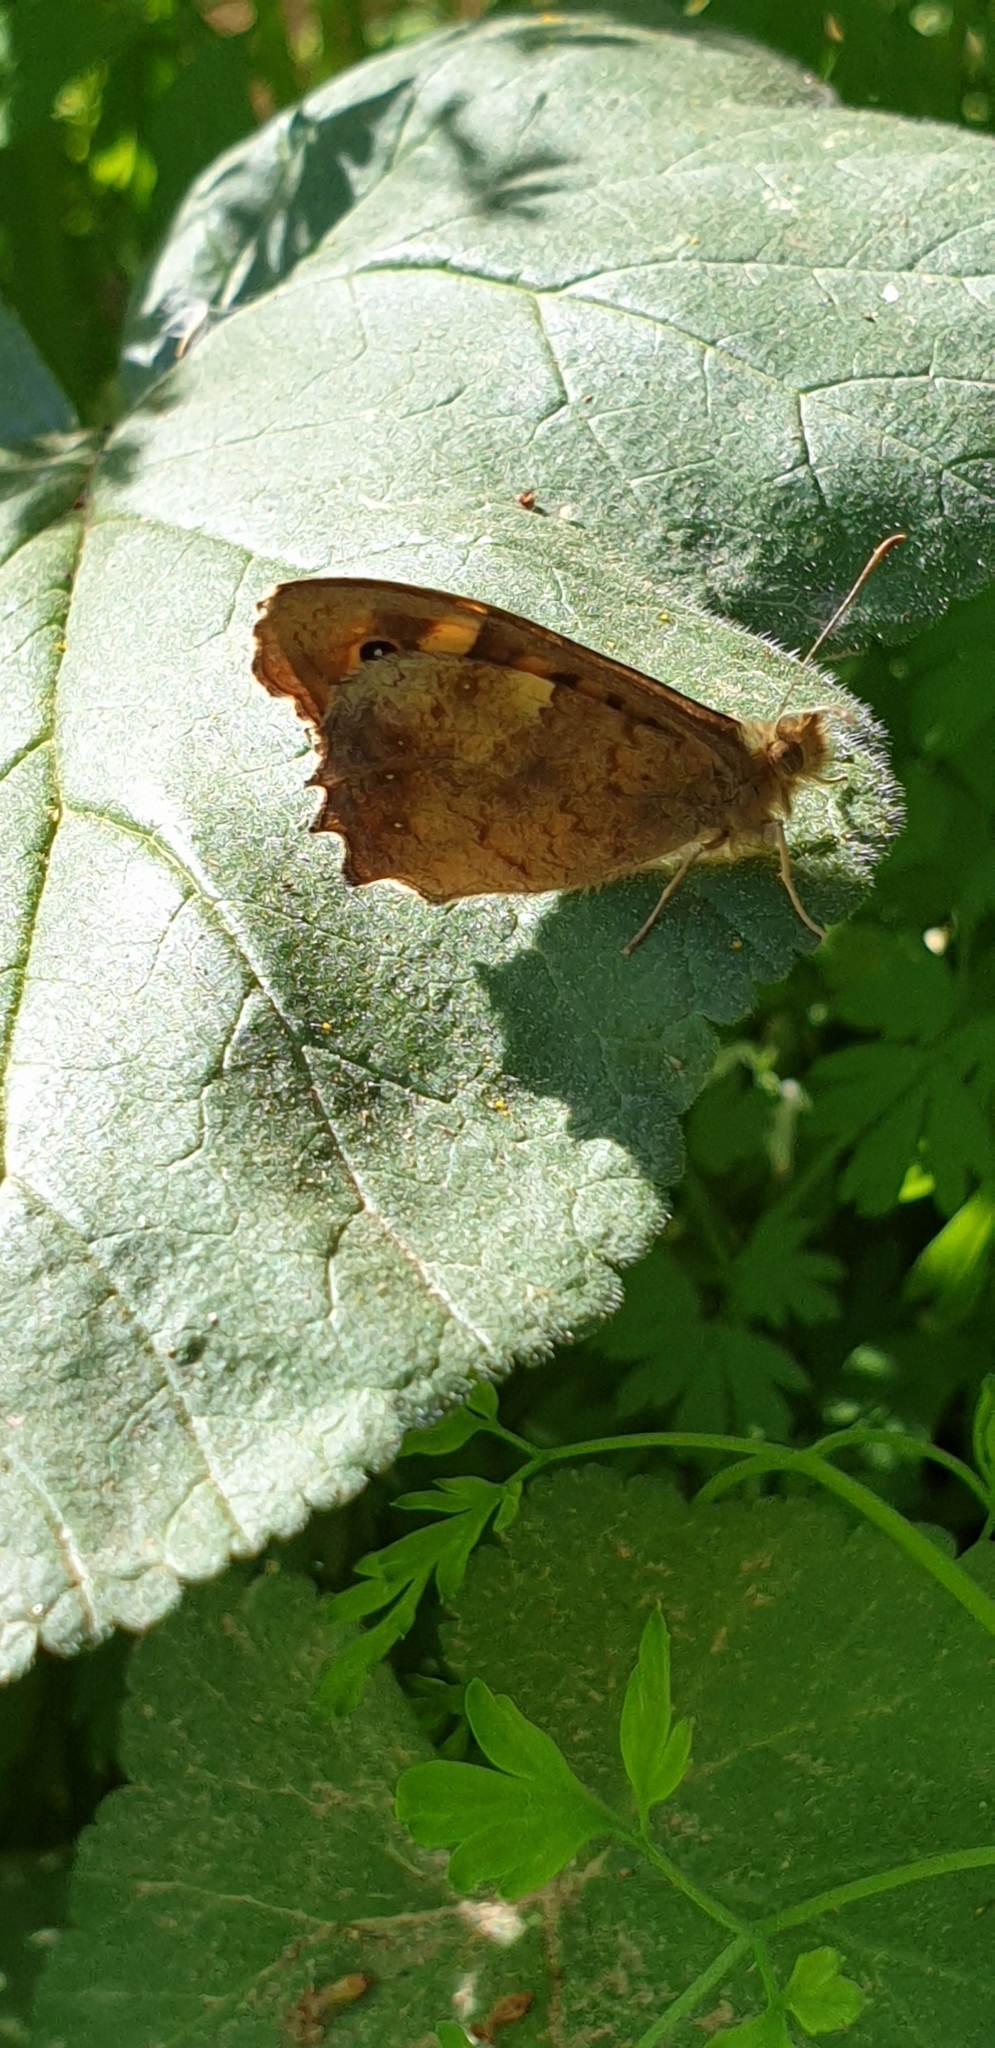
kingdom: Animalia
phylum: Arthropoda
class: Insecta
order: Lepidoptera
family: Nymphalidae
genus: Pararge
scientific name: Pararge aegeria
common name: Speckled wood
